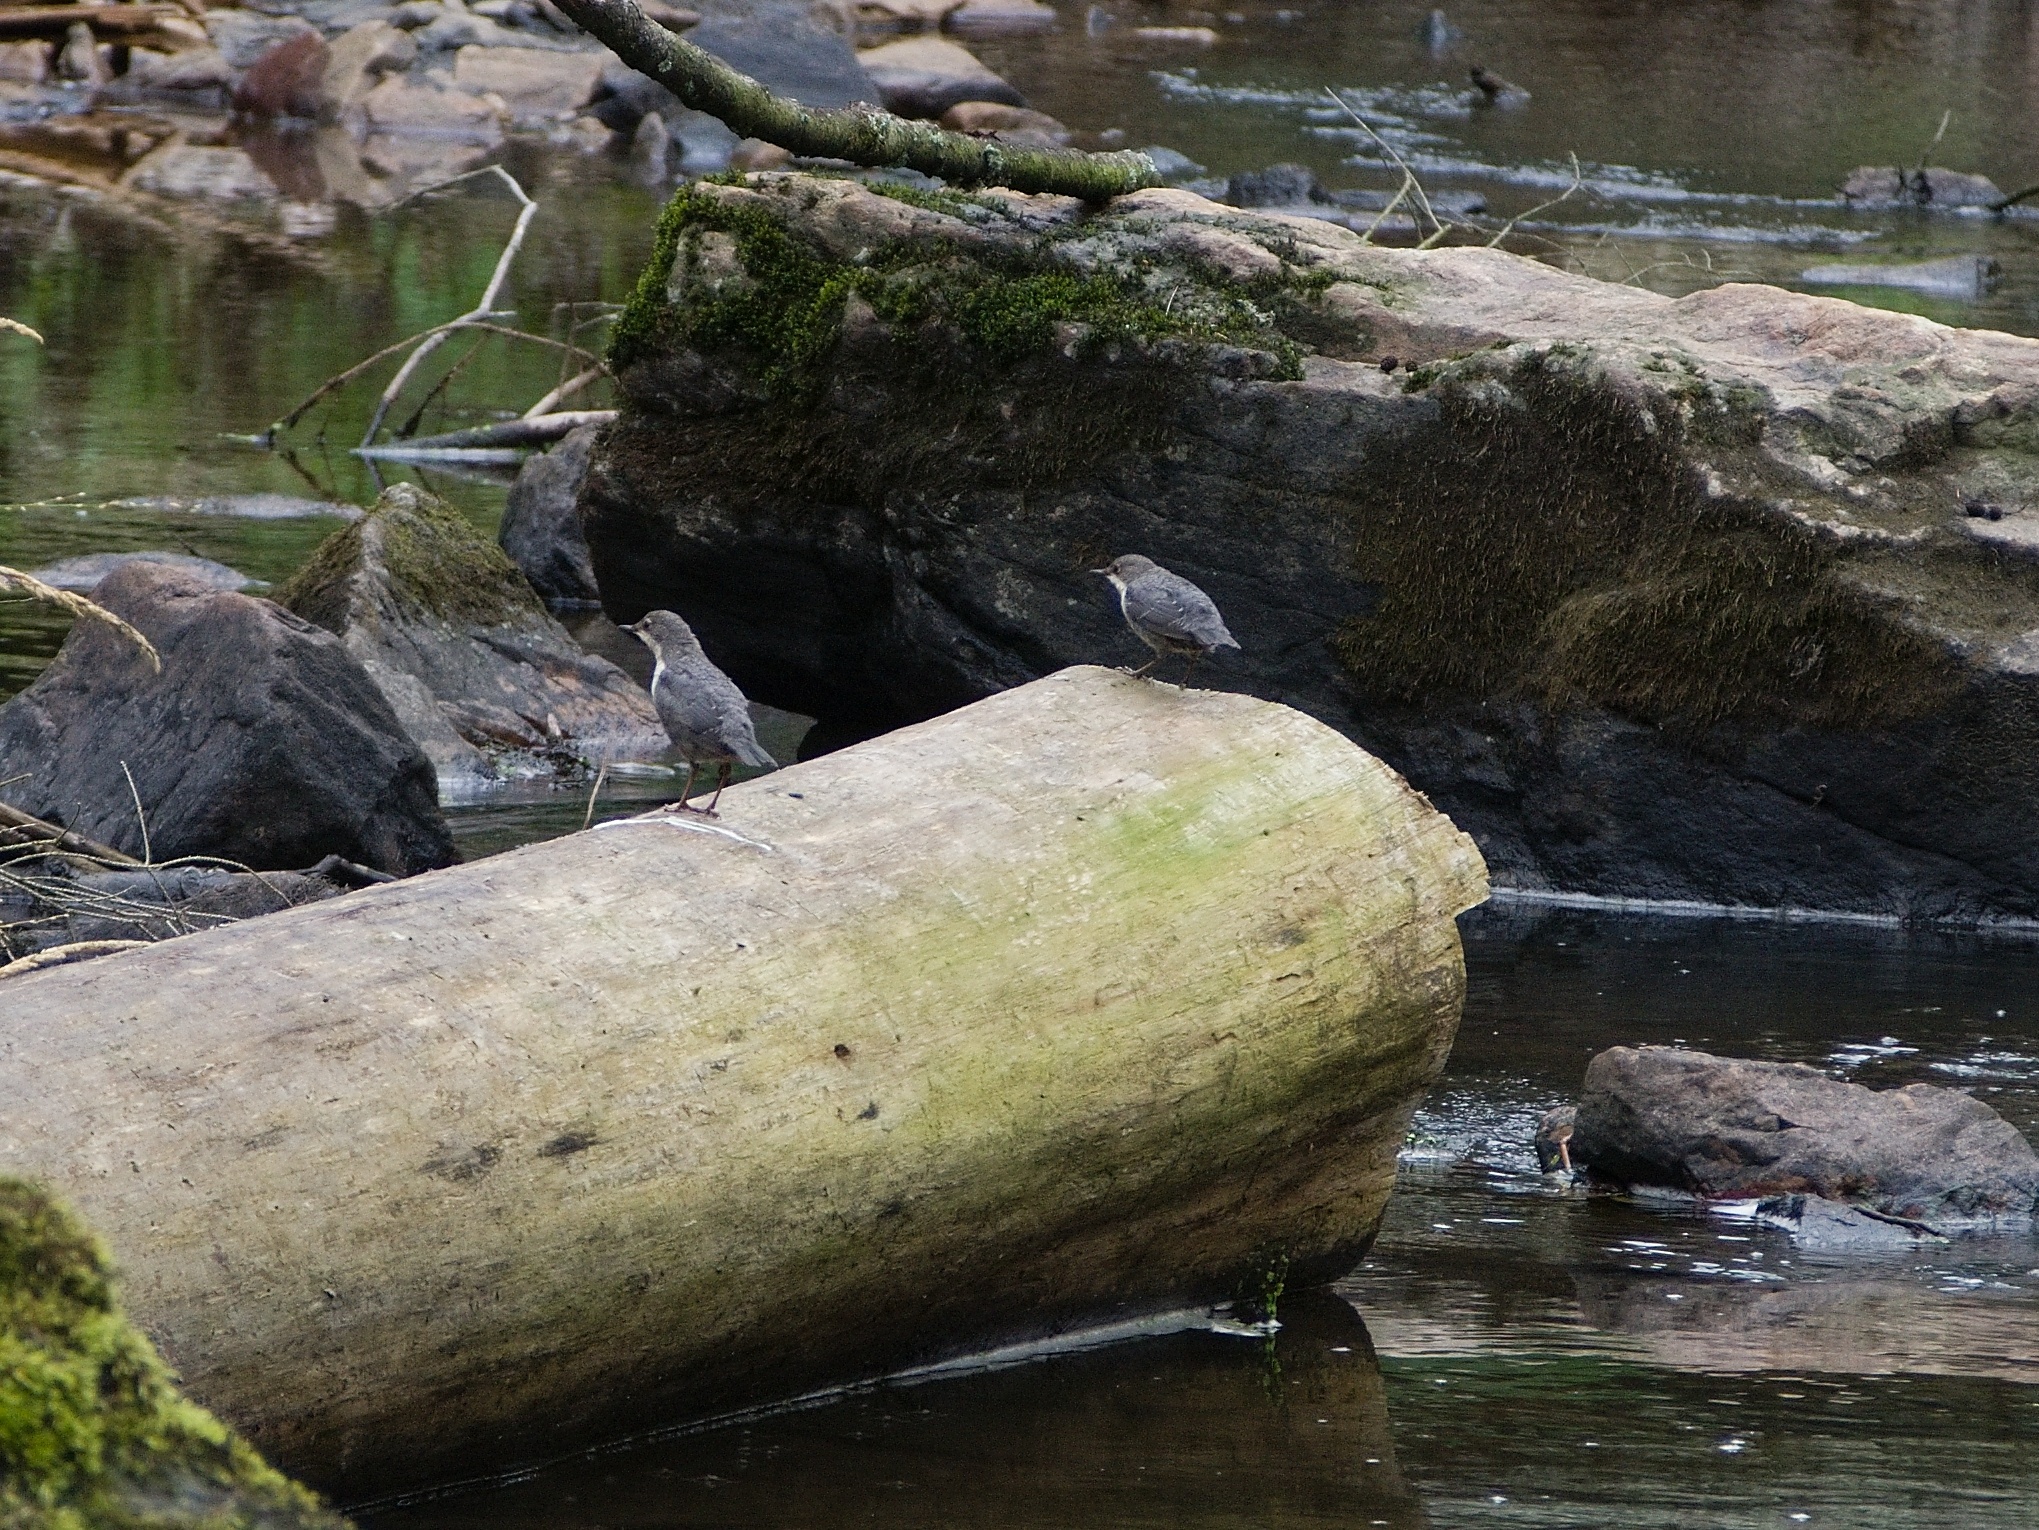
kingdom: Animalia
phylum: Chordata
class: Aves
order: Passeriformes
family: Cinclidae
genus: Cinclus
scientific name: Cinclus cinclus
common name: White-throated dipper
